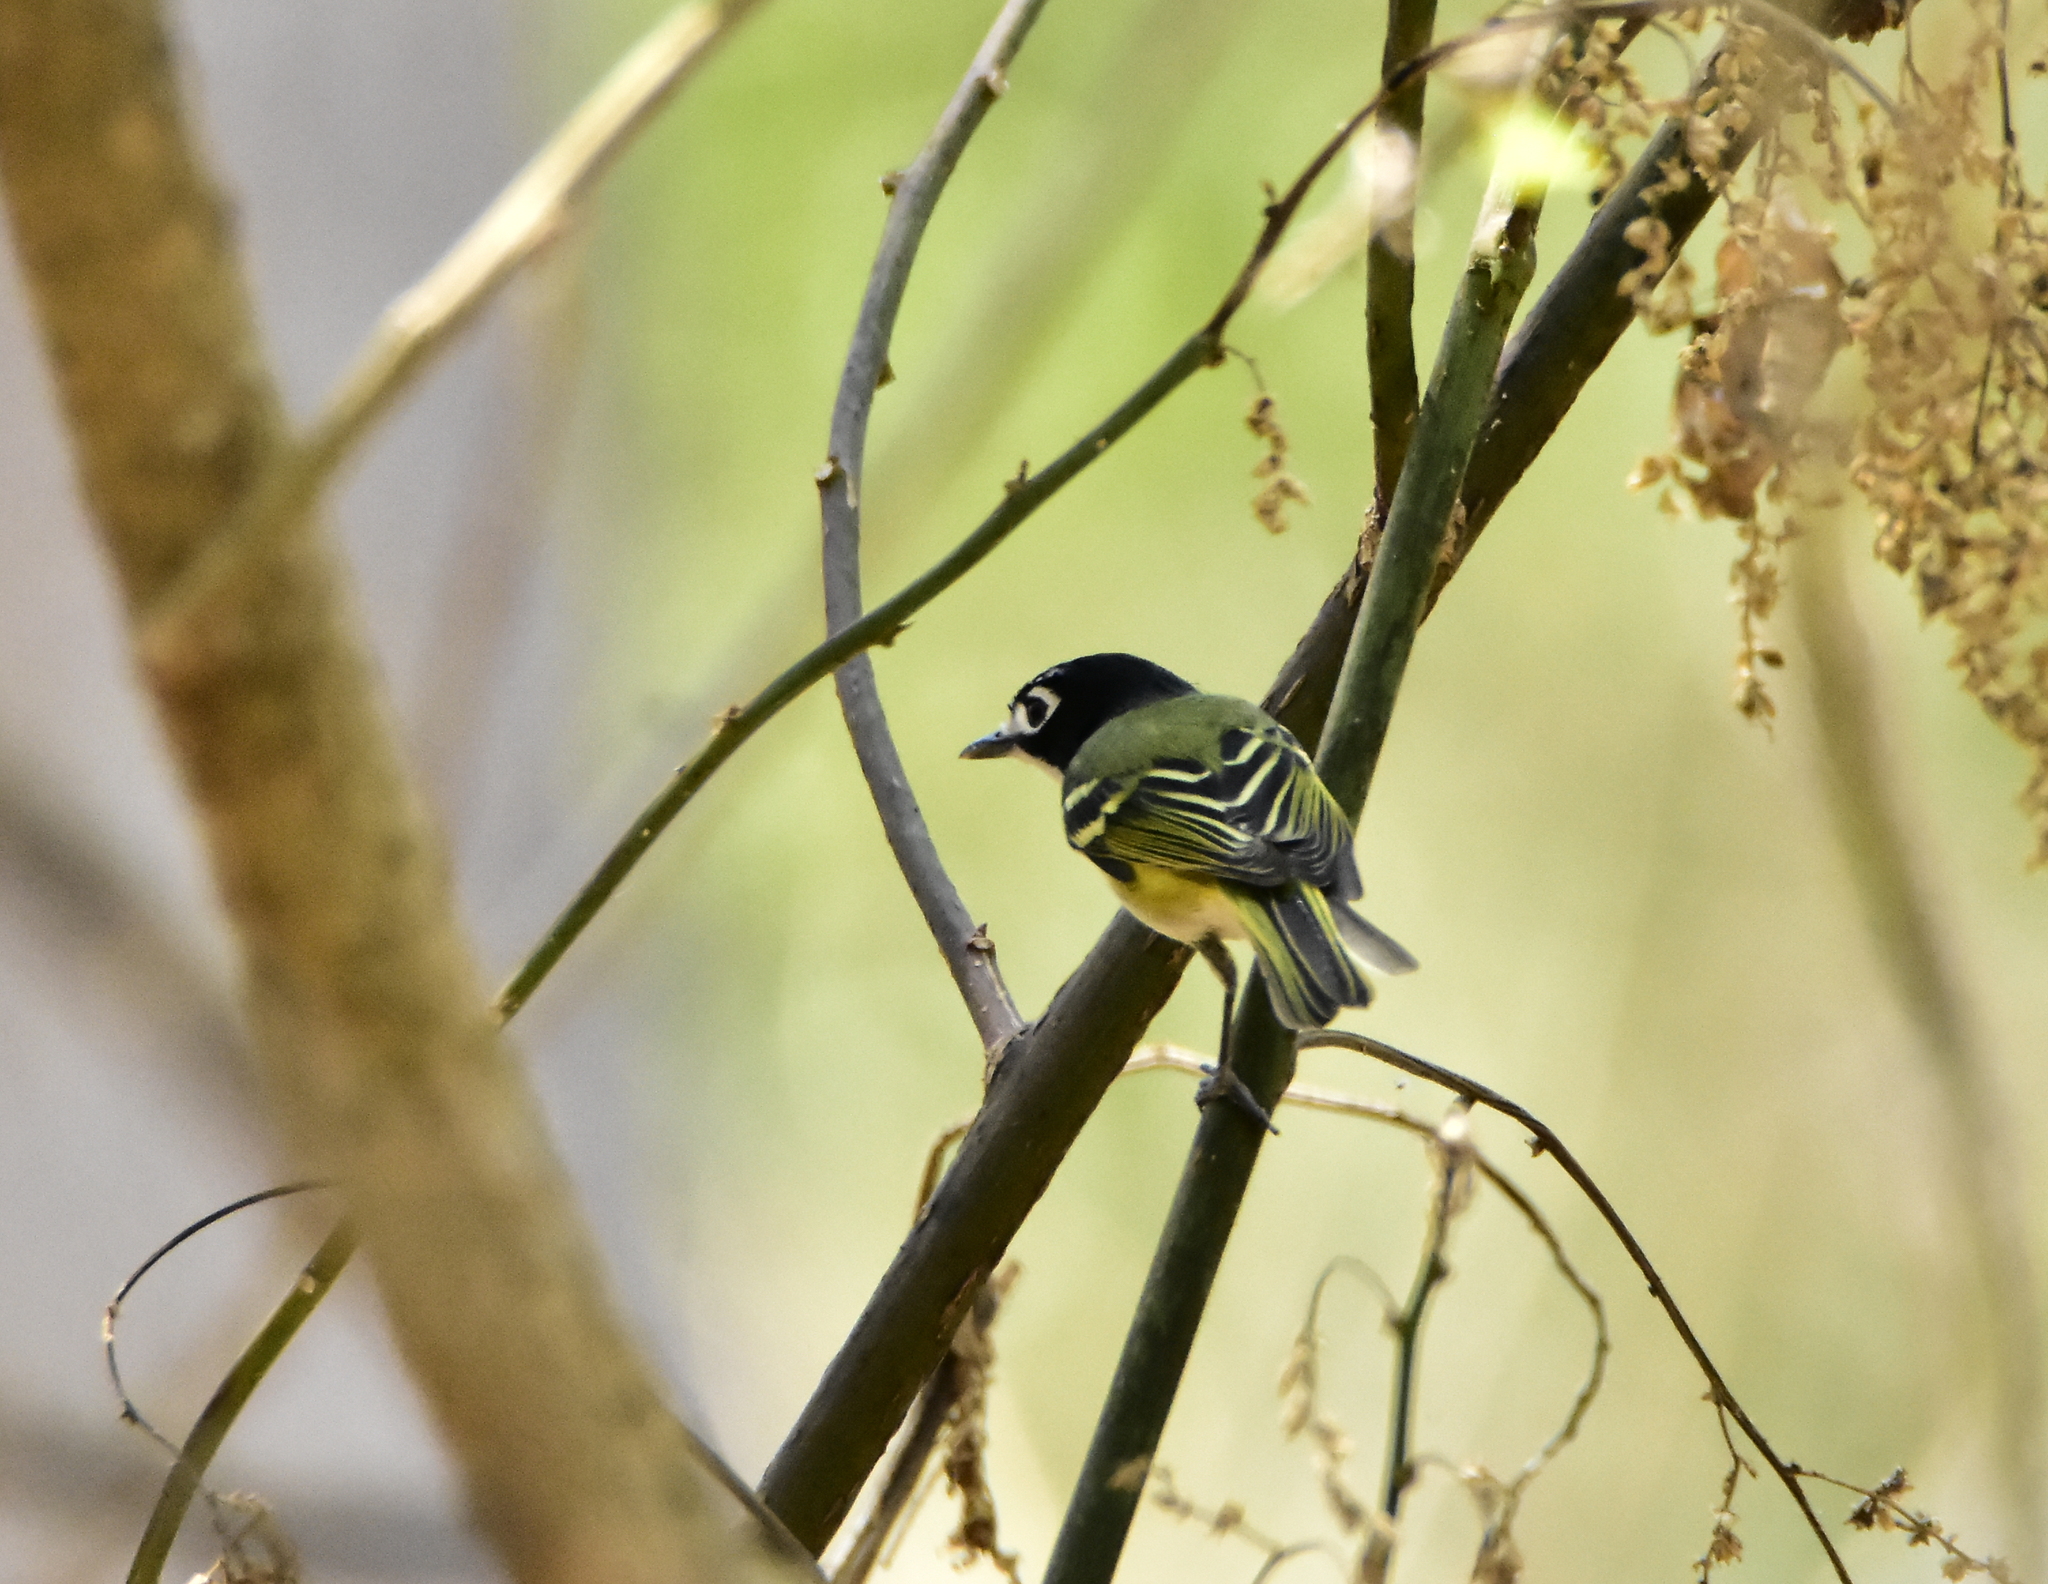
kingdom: Animalia
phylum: Chordata
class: Aves
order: Passeriformes
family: Vireonidae
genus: Vireo
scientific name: Vireo atricapilla
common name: Black-capped vireo
